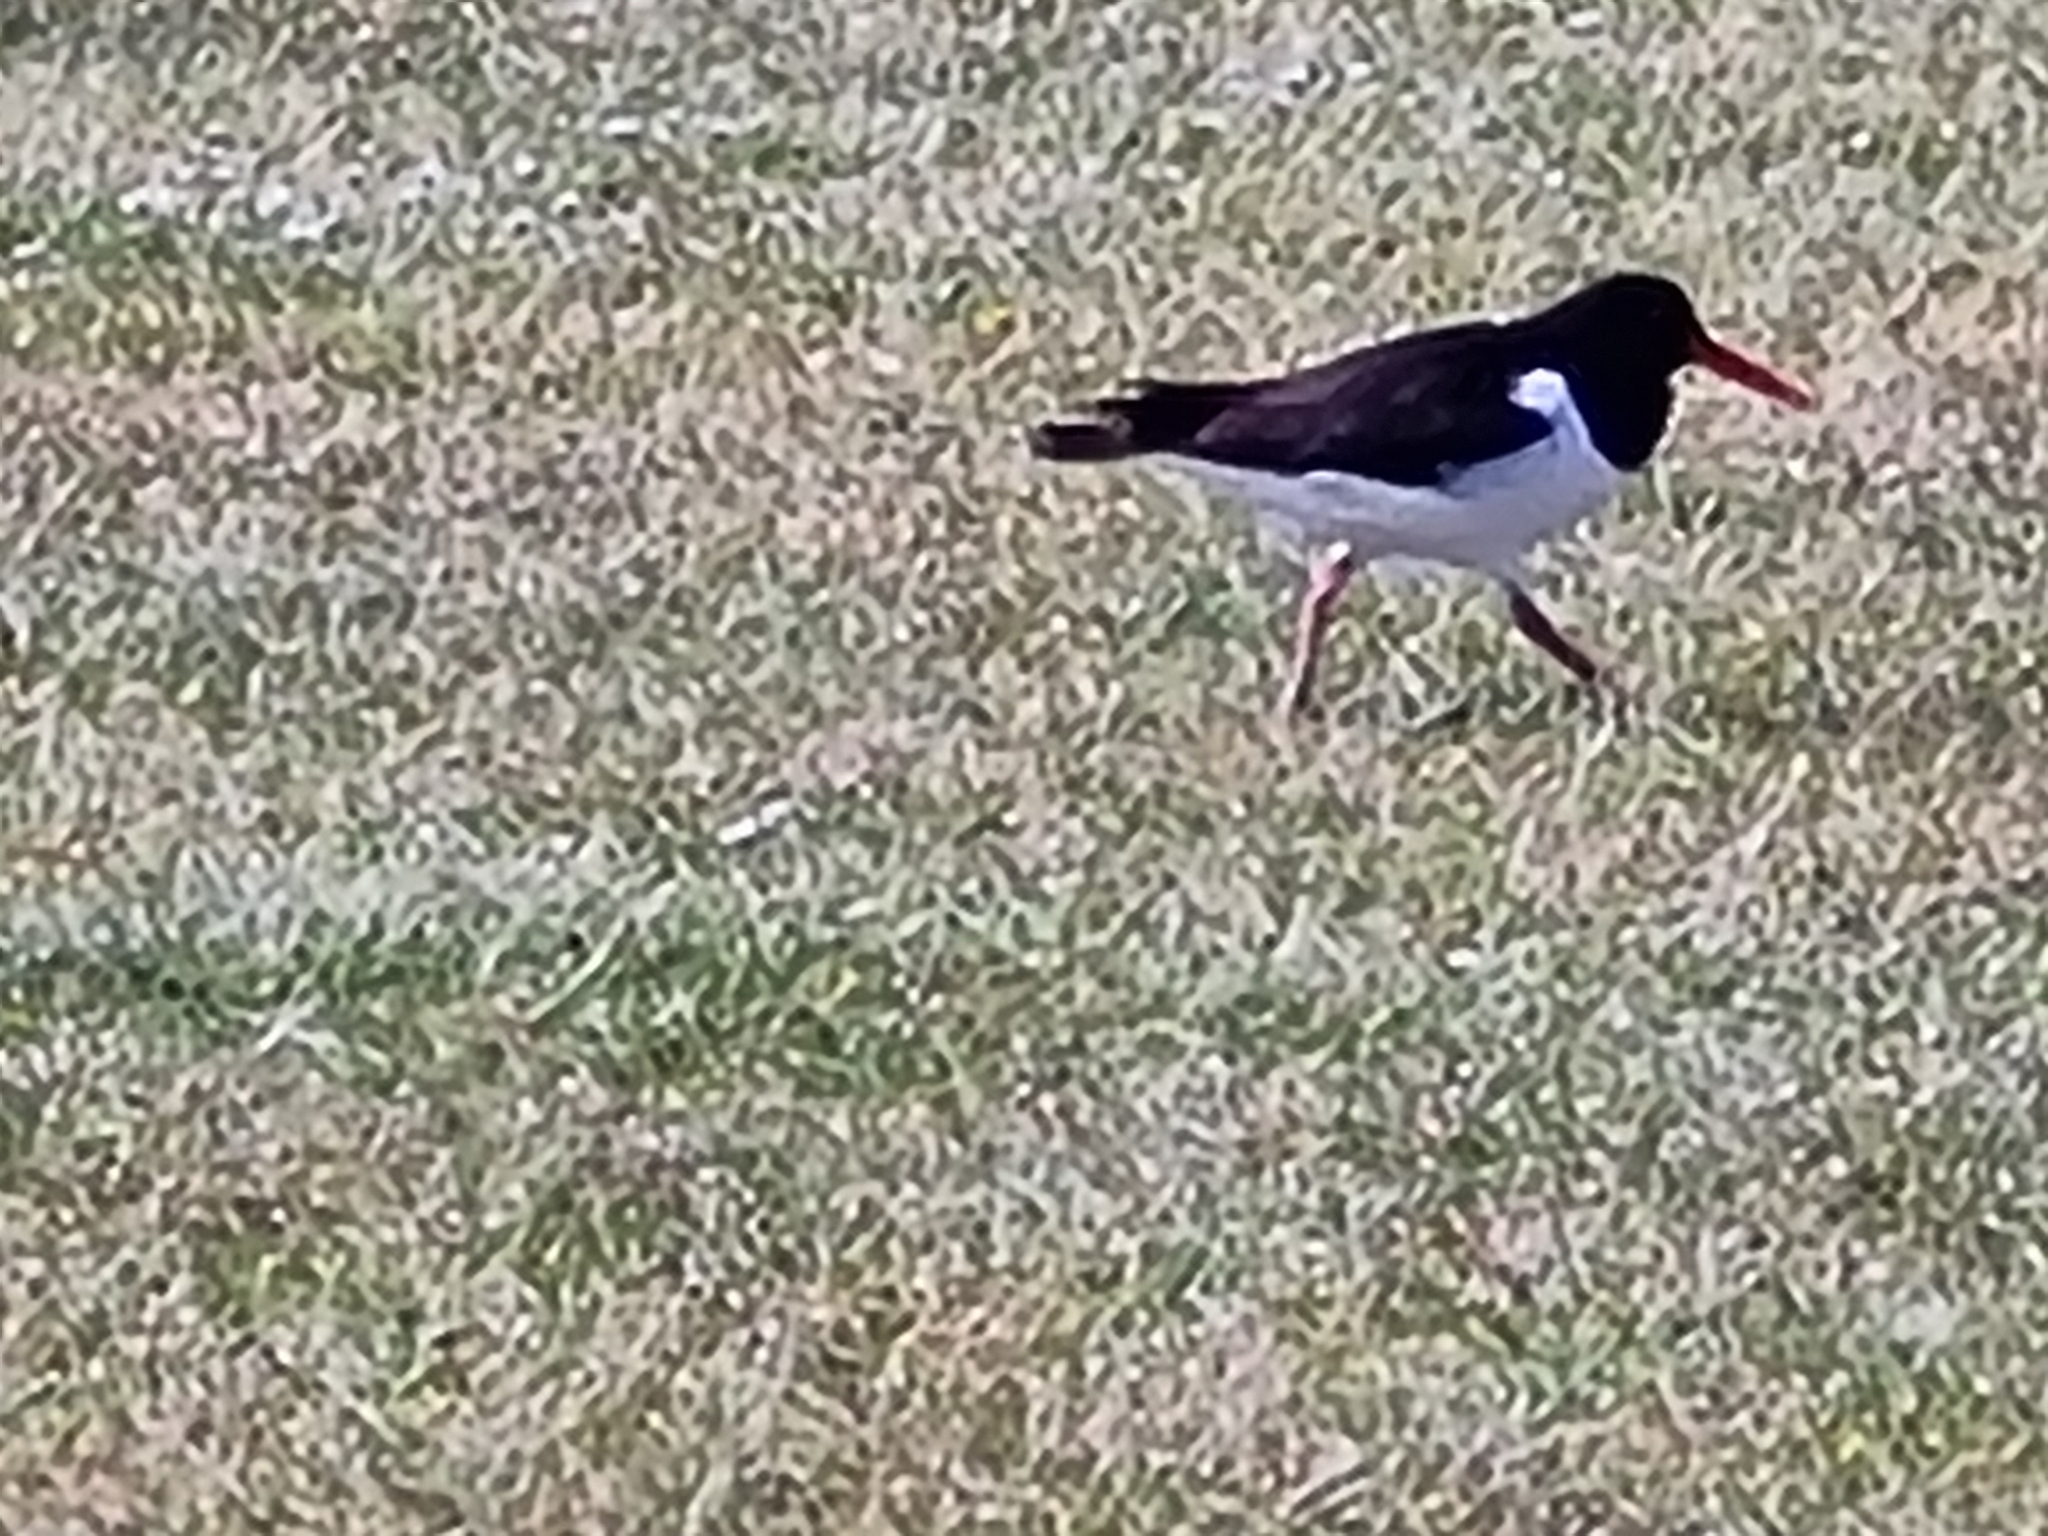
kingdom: Animalia
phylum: Chordata
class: Aves
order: Charadriiformes
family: Haematopodidae
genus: Haematopus
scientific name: Haematopus ostralegus
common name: Eurasian oystercatcher
